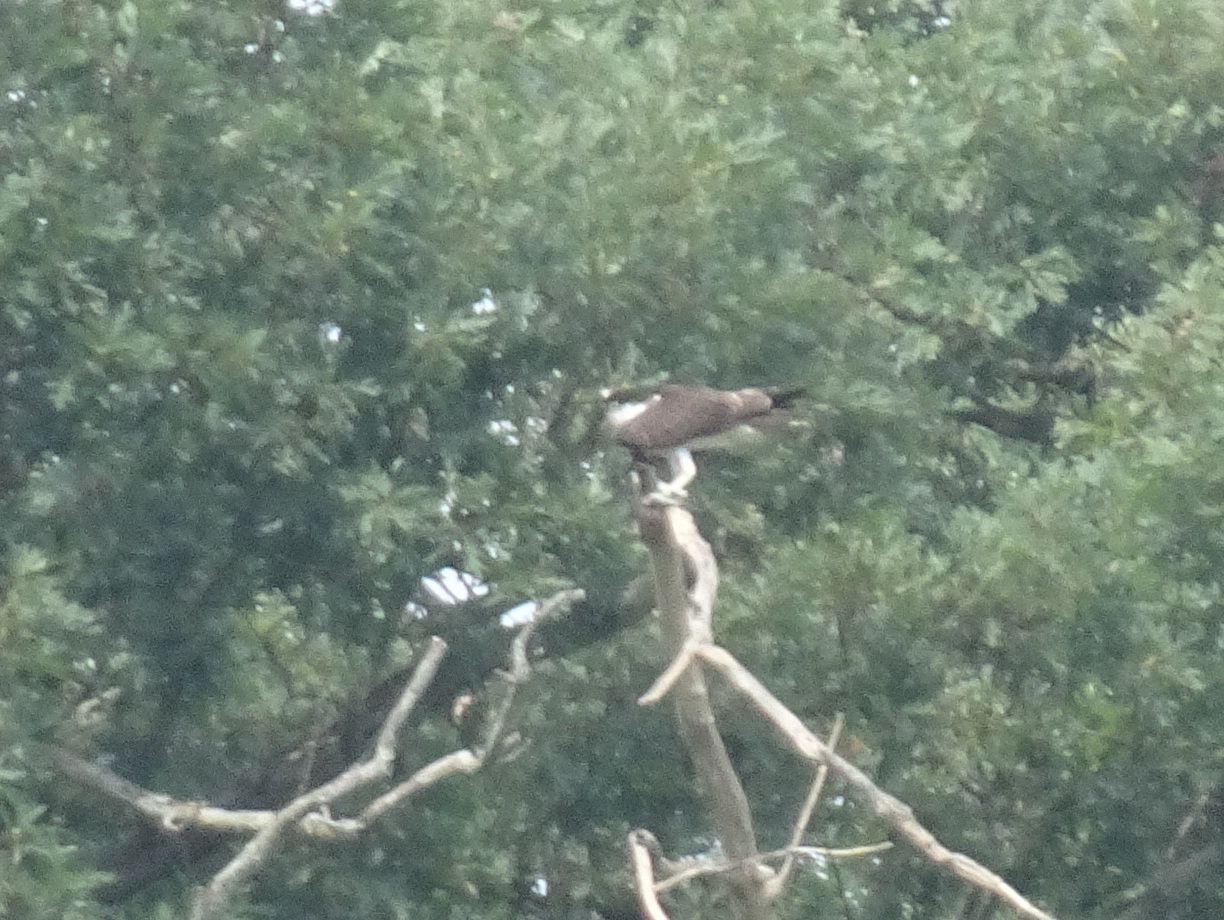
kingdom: Animalia
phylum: Chordata
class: Aves
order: Accipitriformes
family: Pandionidae
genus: Pandion
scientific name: Pandion haliaetus
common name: Osprey
